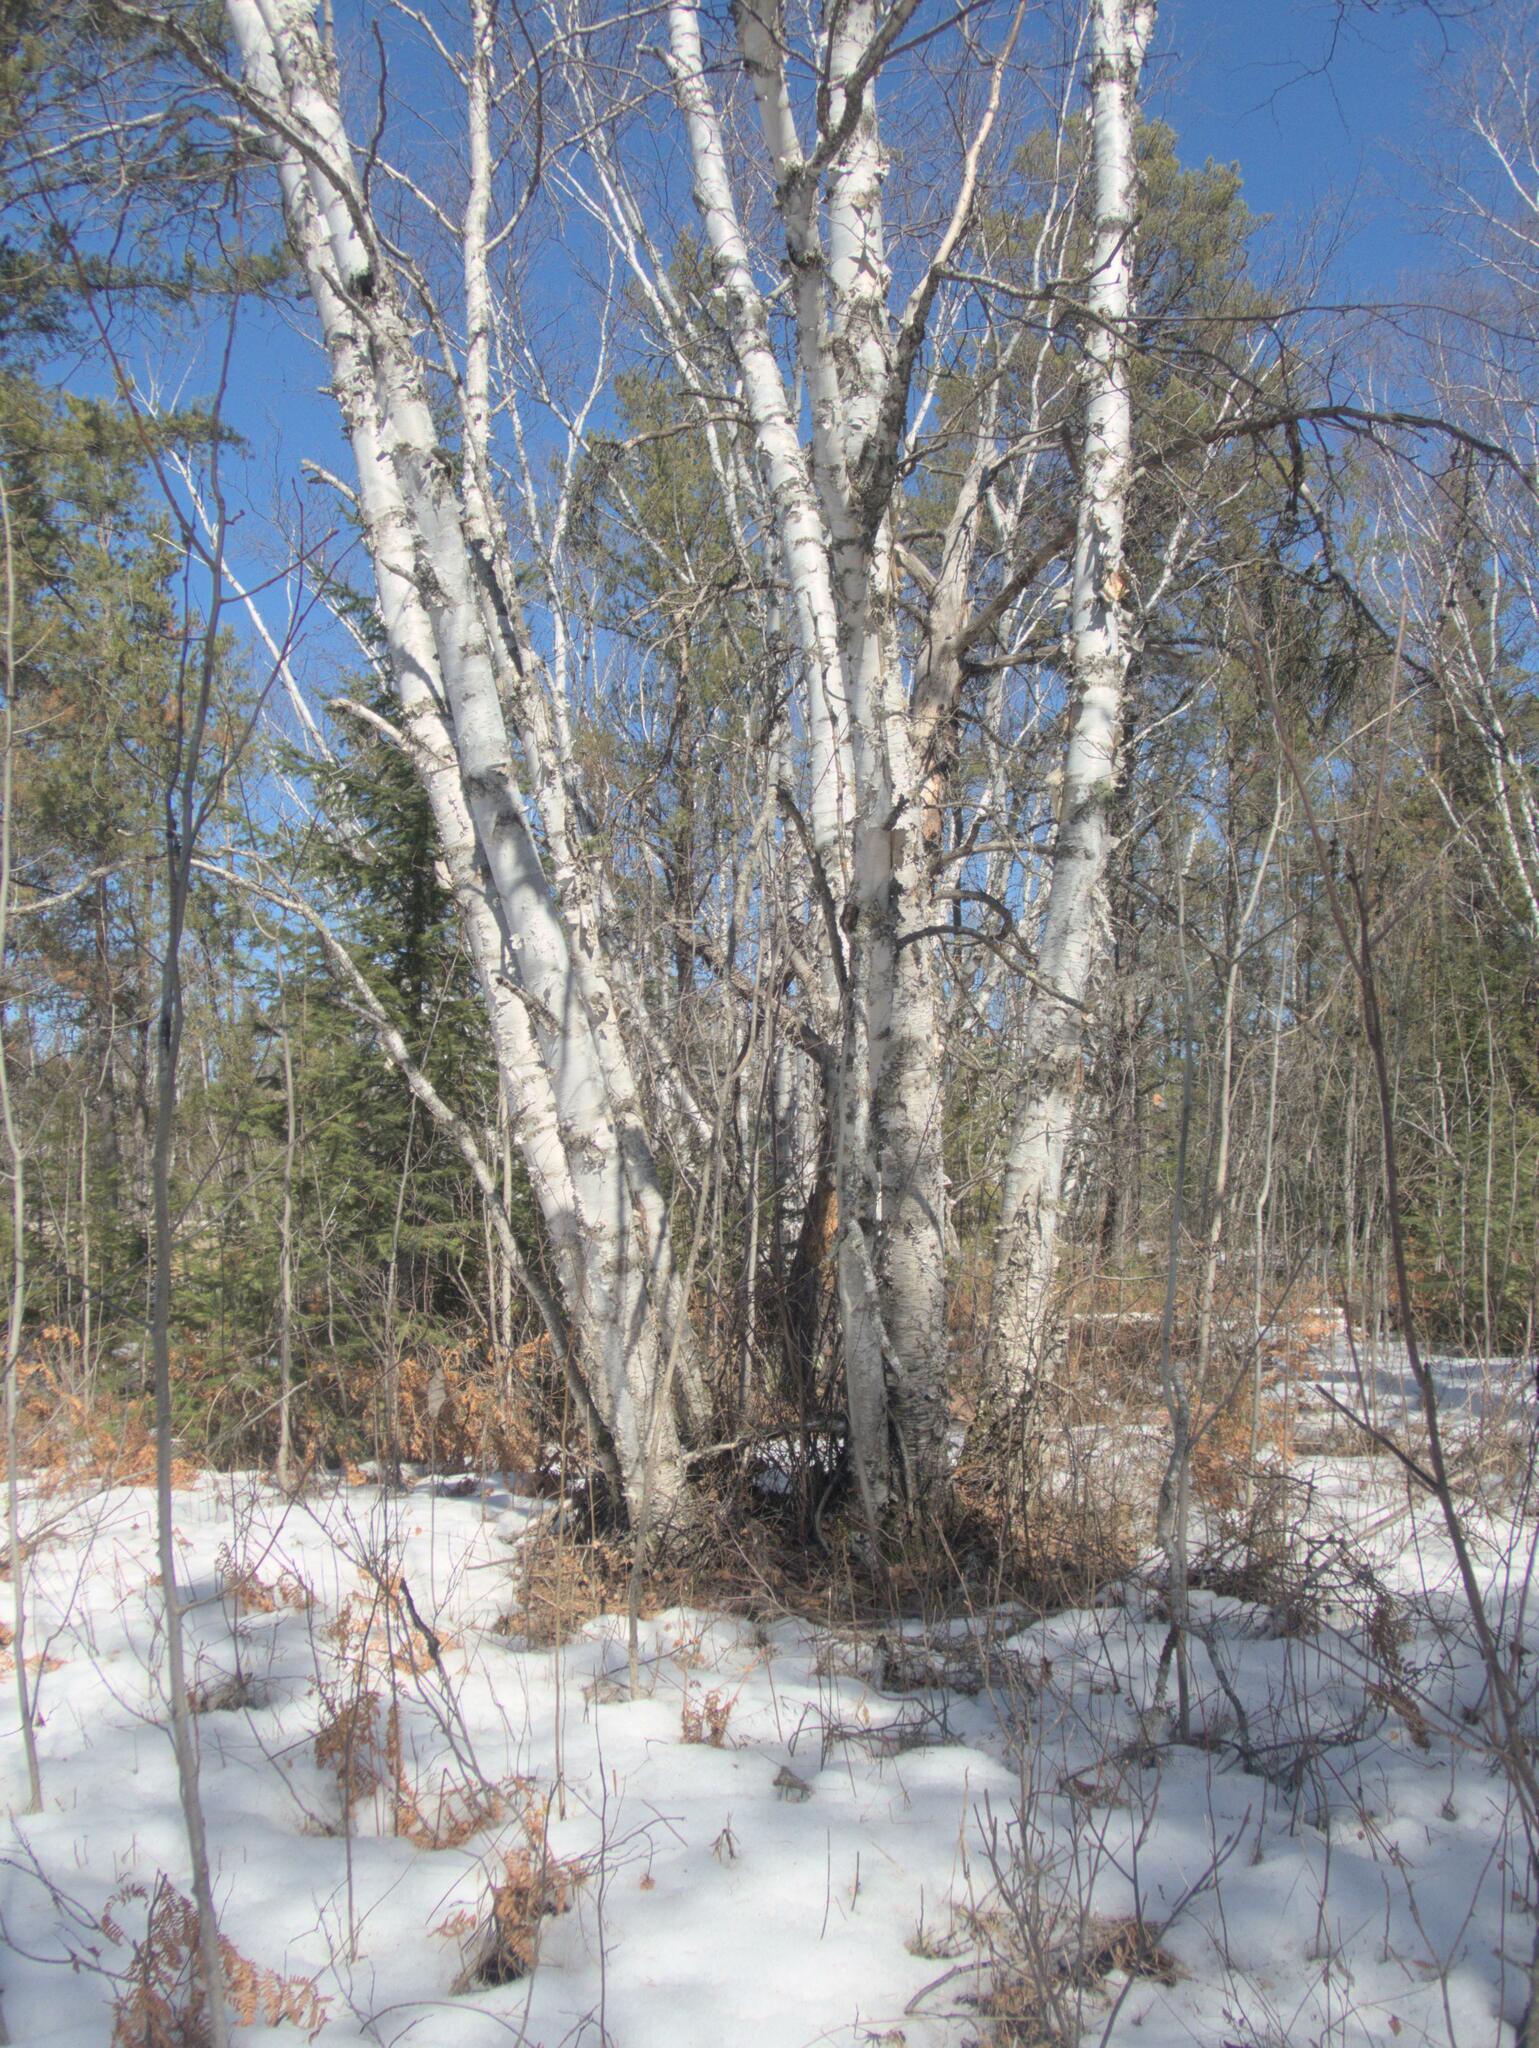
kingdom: Plantae
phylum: Tracheophyta
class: Magnoliopsida
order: Fagales
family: Betulaceae
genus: Betula
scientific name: Betula papyrifera
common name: Paper birch
